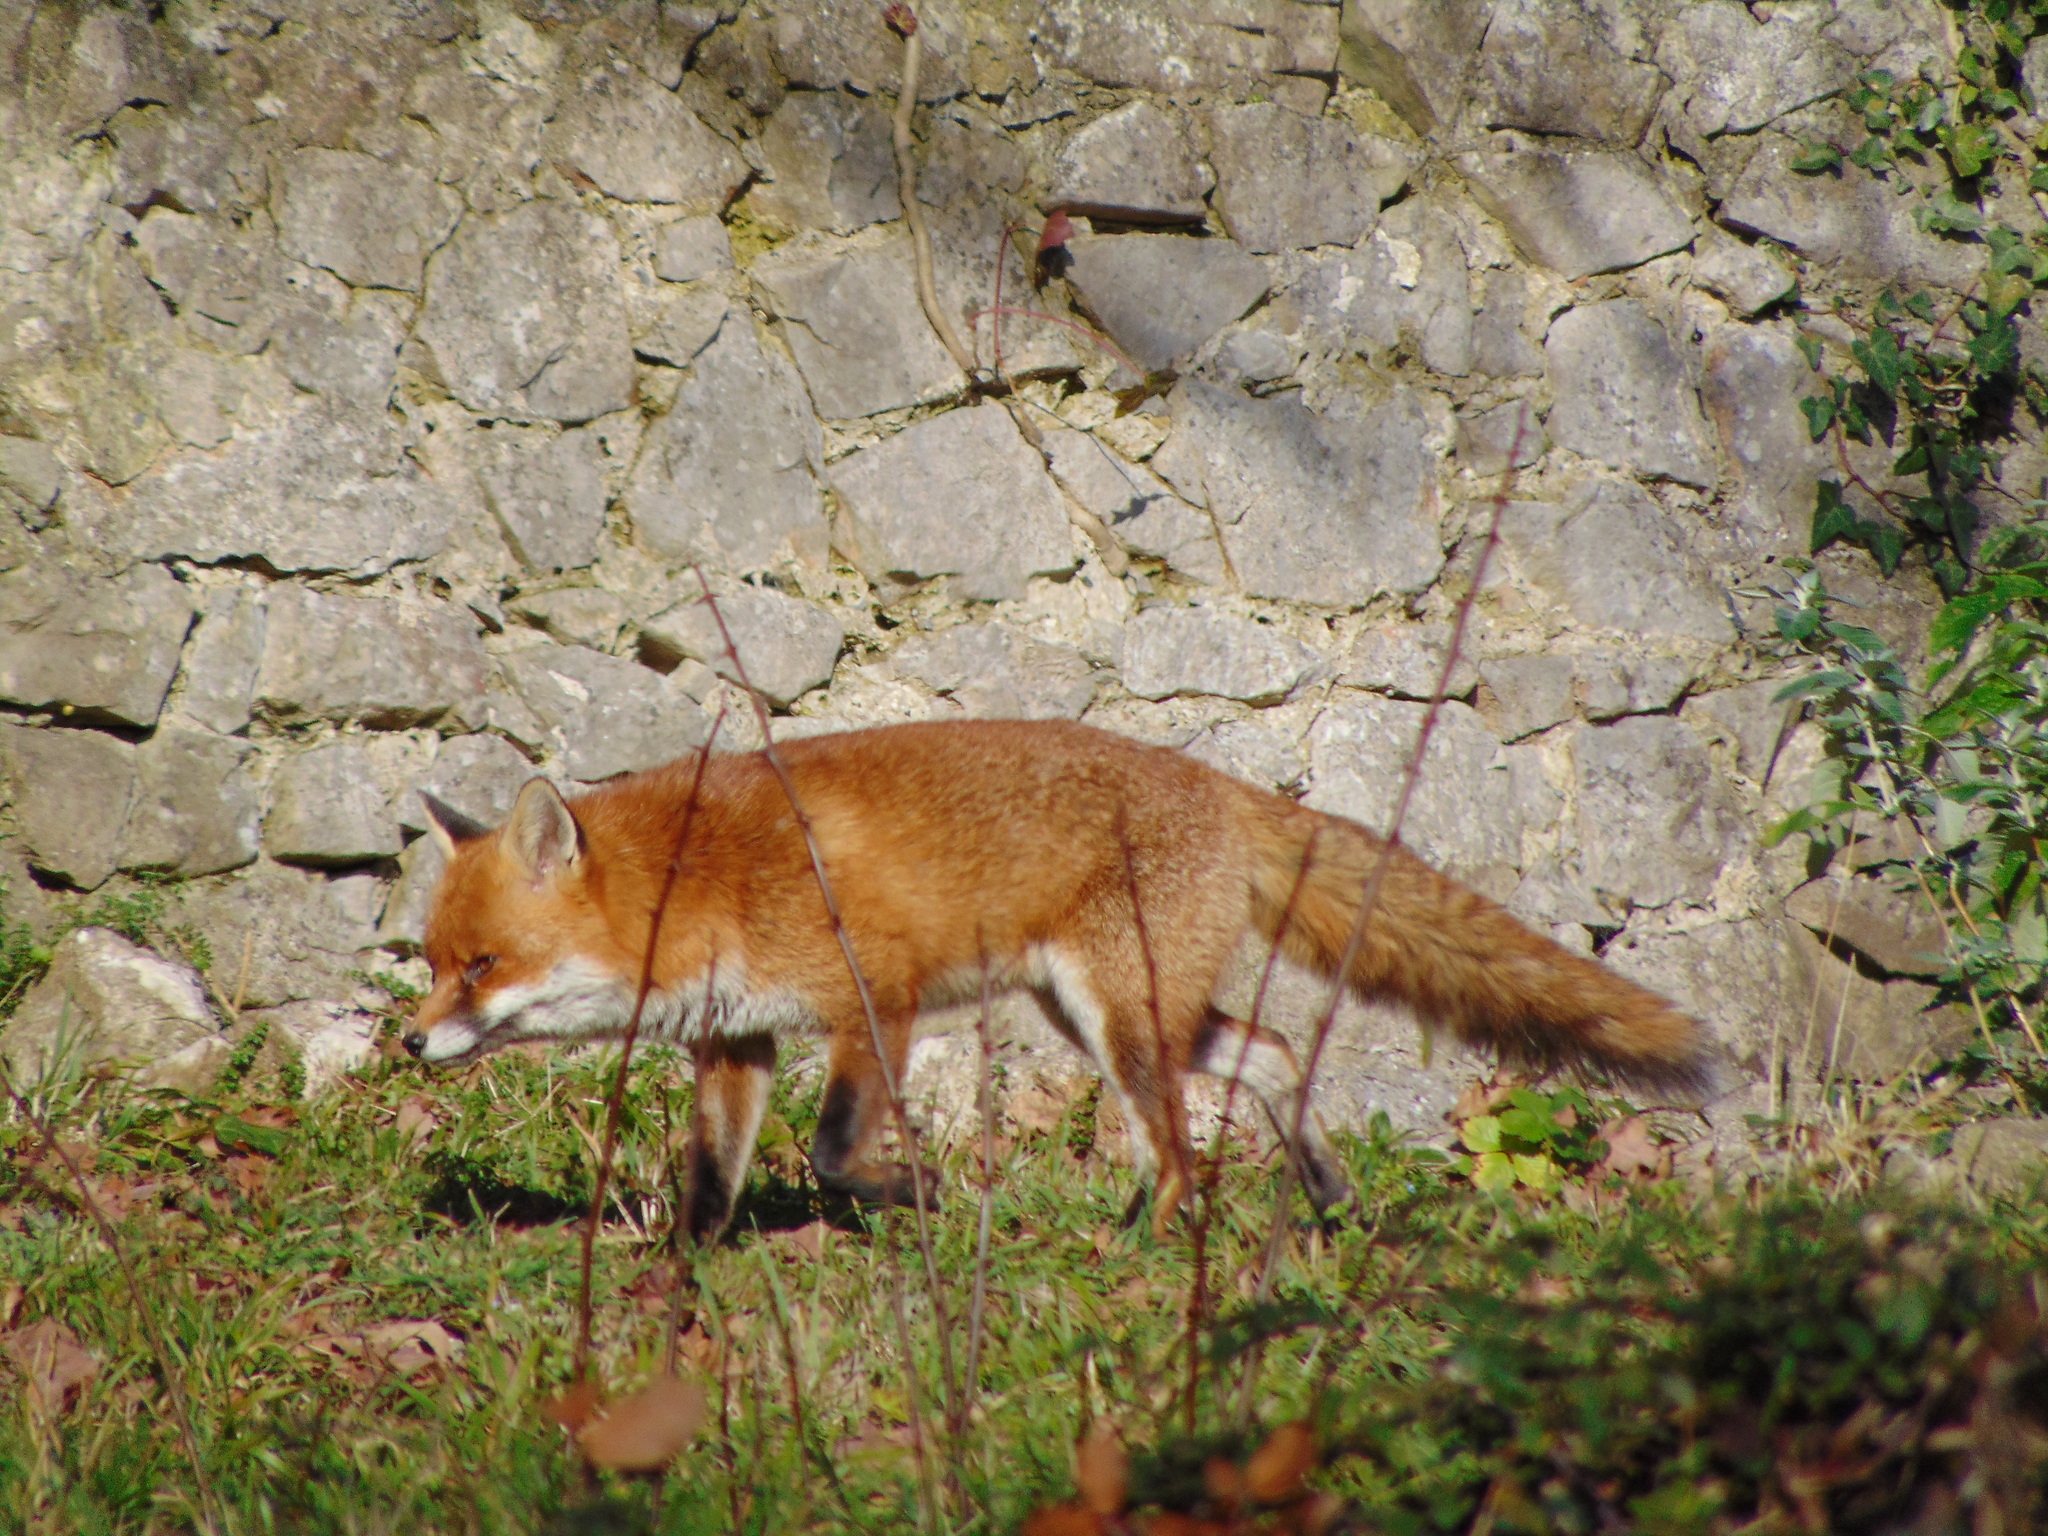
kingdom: Animalia
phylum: Chordata
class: Mammalia
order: Carnivora
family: Canidae
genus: Vulpes
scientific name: Vulpes vulpes
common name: Red fox
